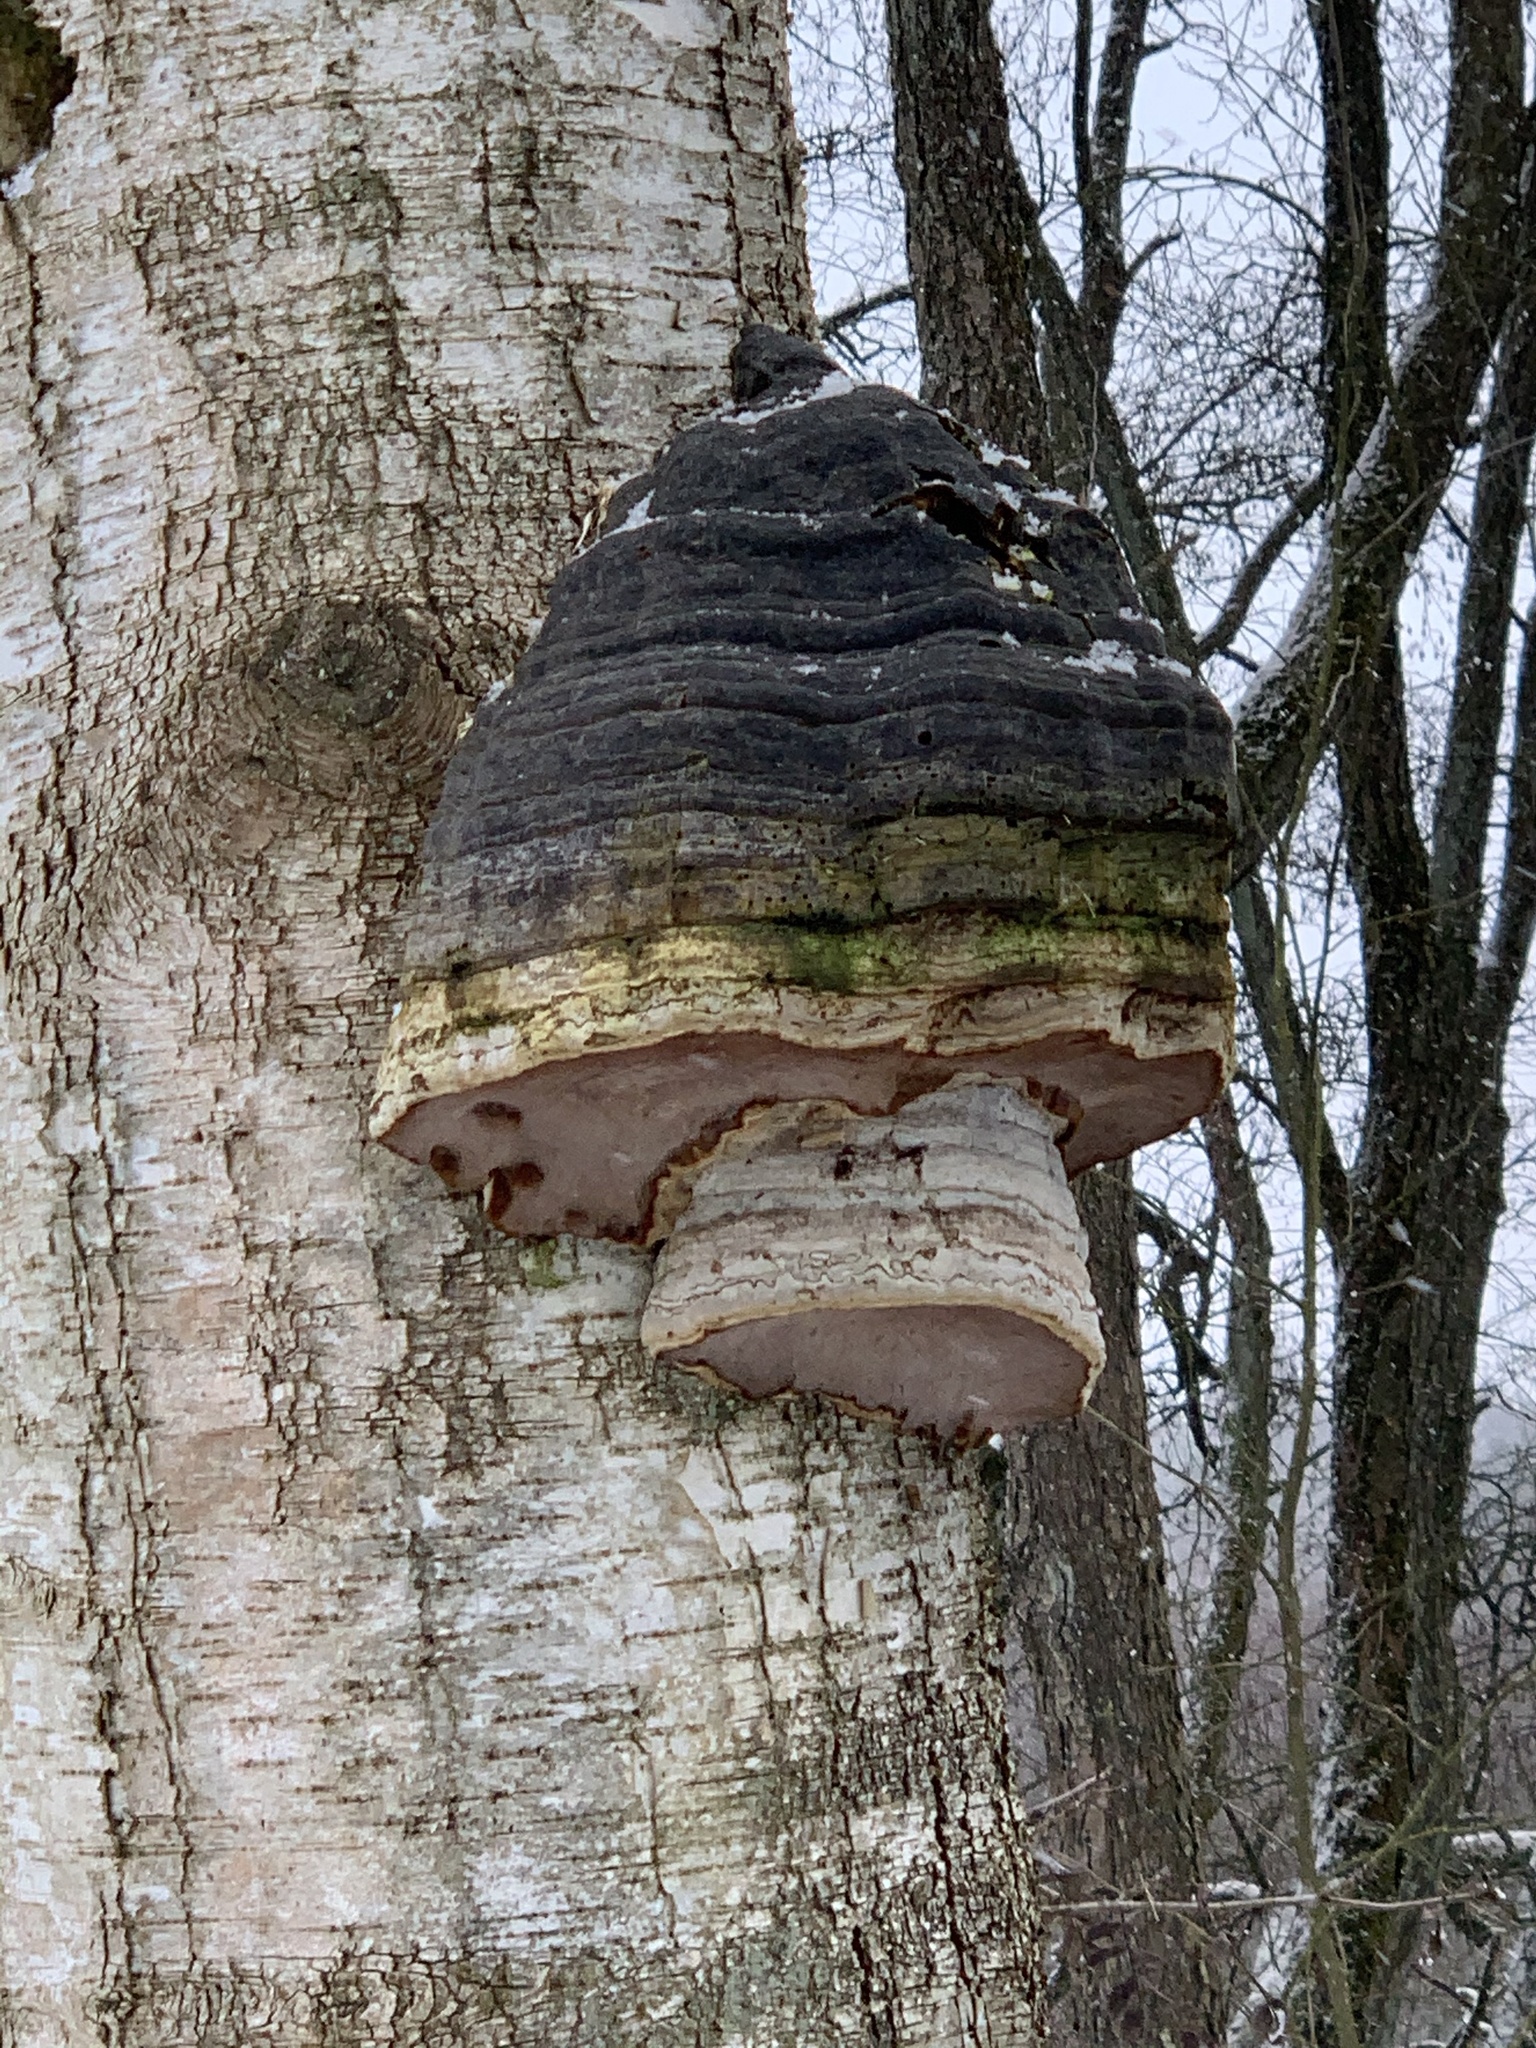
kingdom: Fungi
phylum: Basidiomycota
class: Agaricomycetes
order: Polyporales
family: Polyporaceae
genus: Fomes
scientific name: Fomes fomentarius
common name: Hoof fungus
